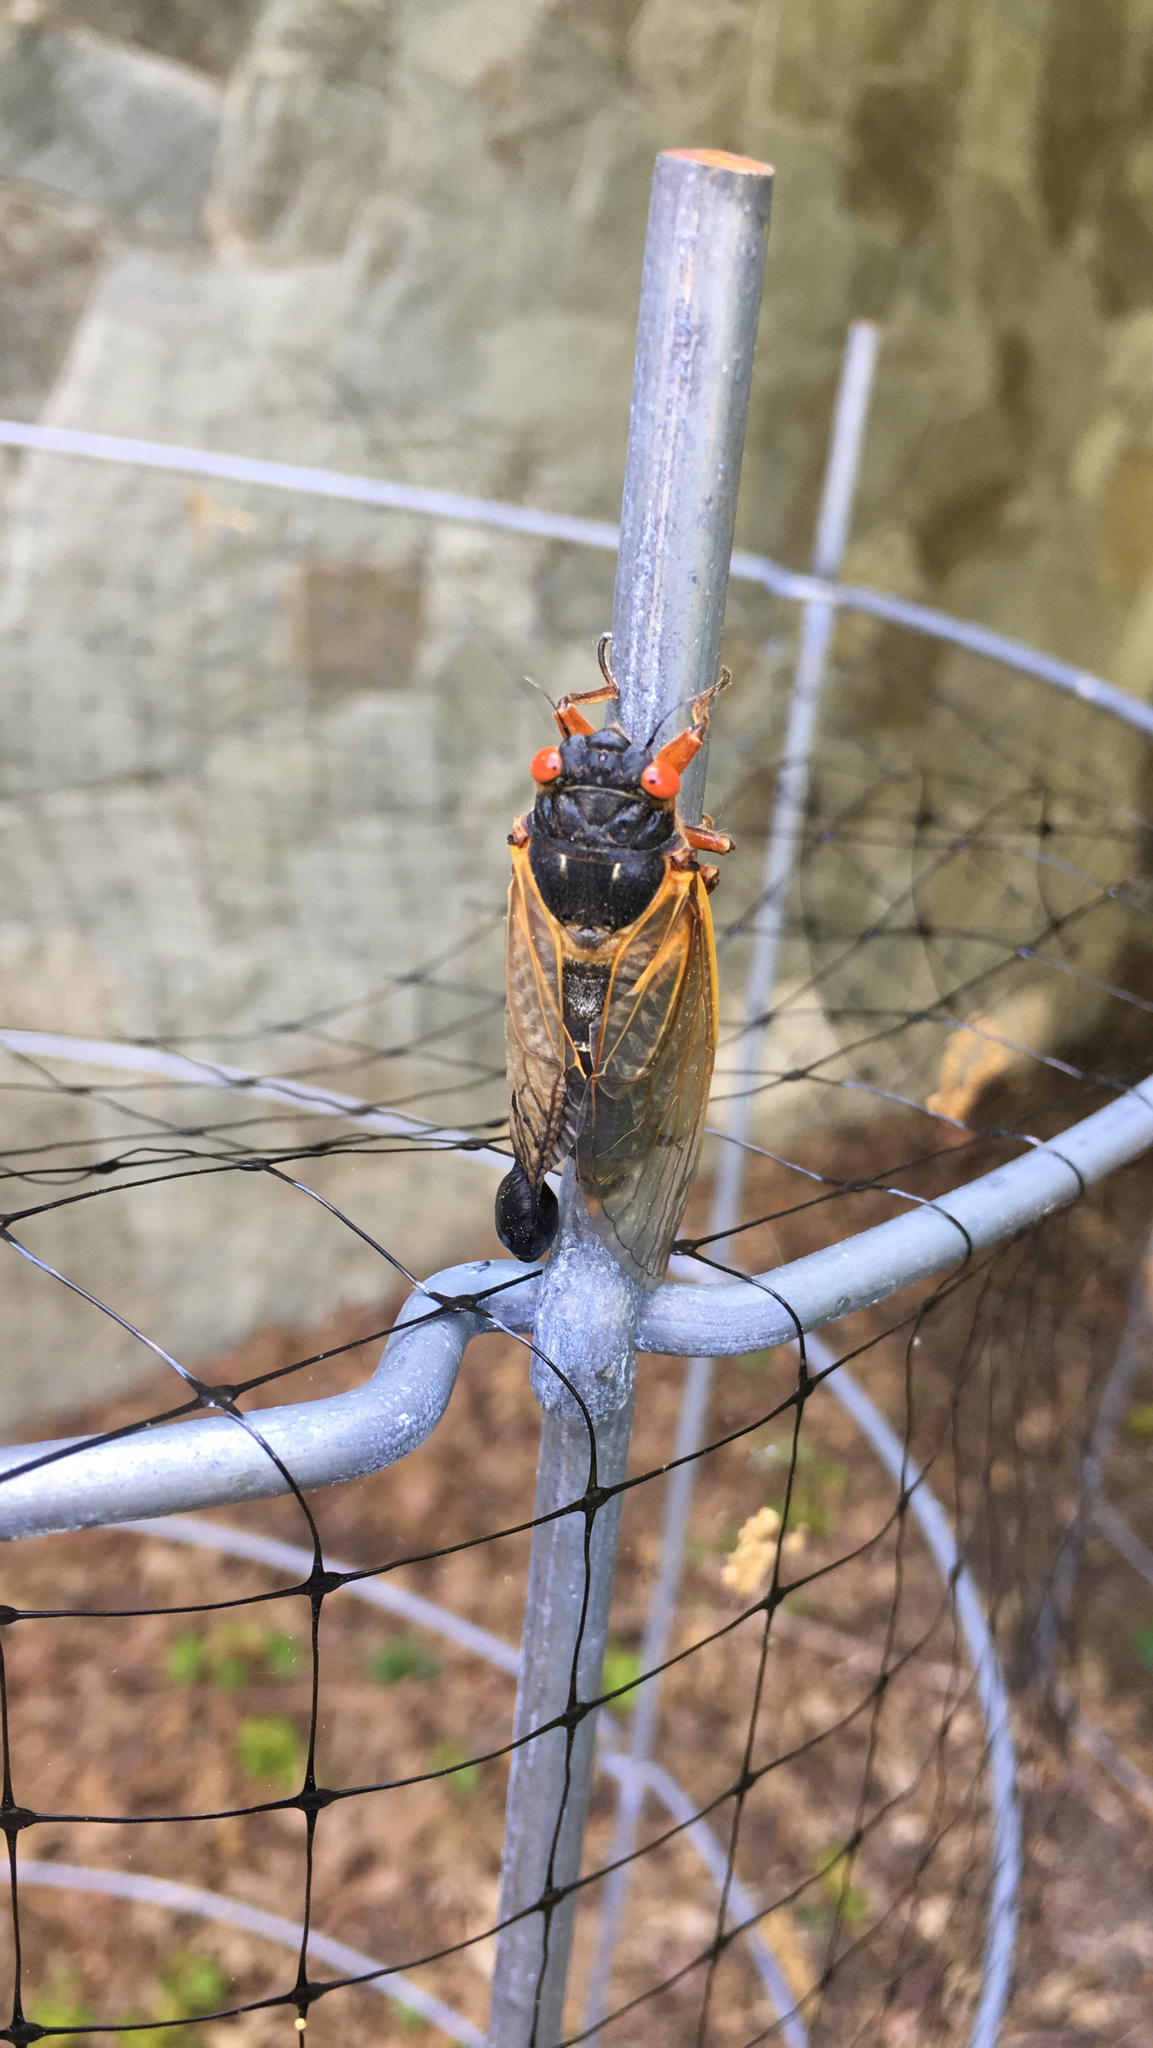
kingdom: Animalia
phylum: Arthropoda
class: Insecta
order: Hemiptera
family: Cicadidae
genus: Magicicada
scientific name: Magicicada septendecim
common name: Periodical cicada
